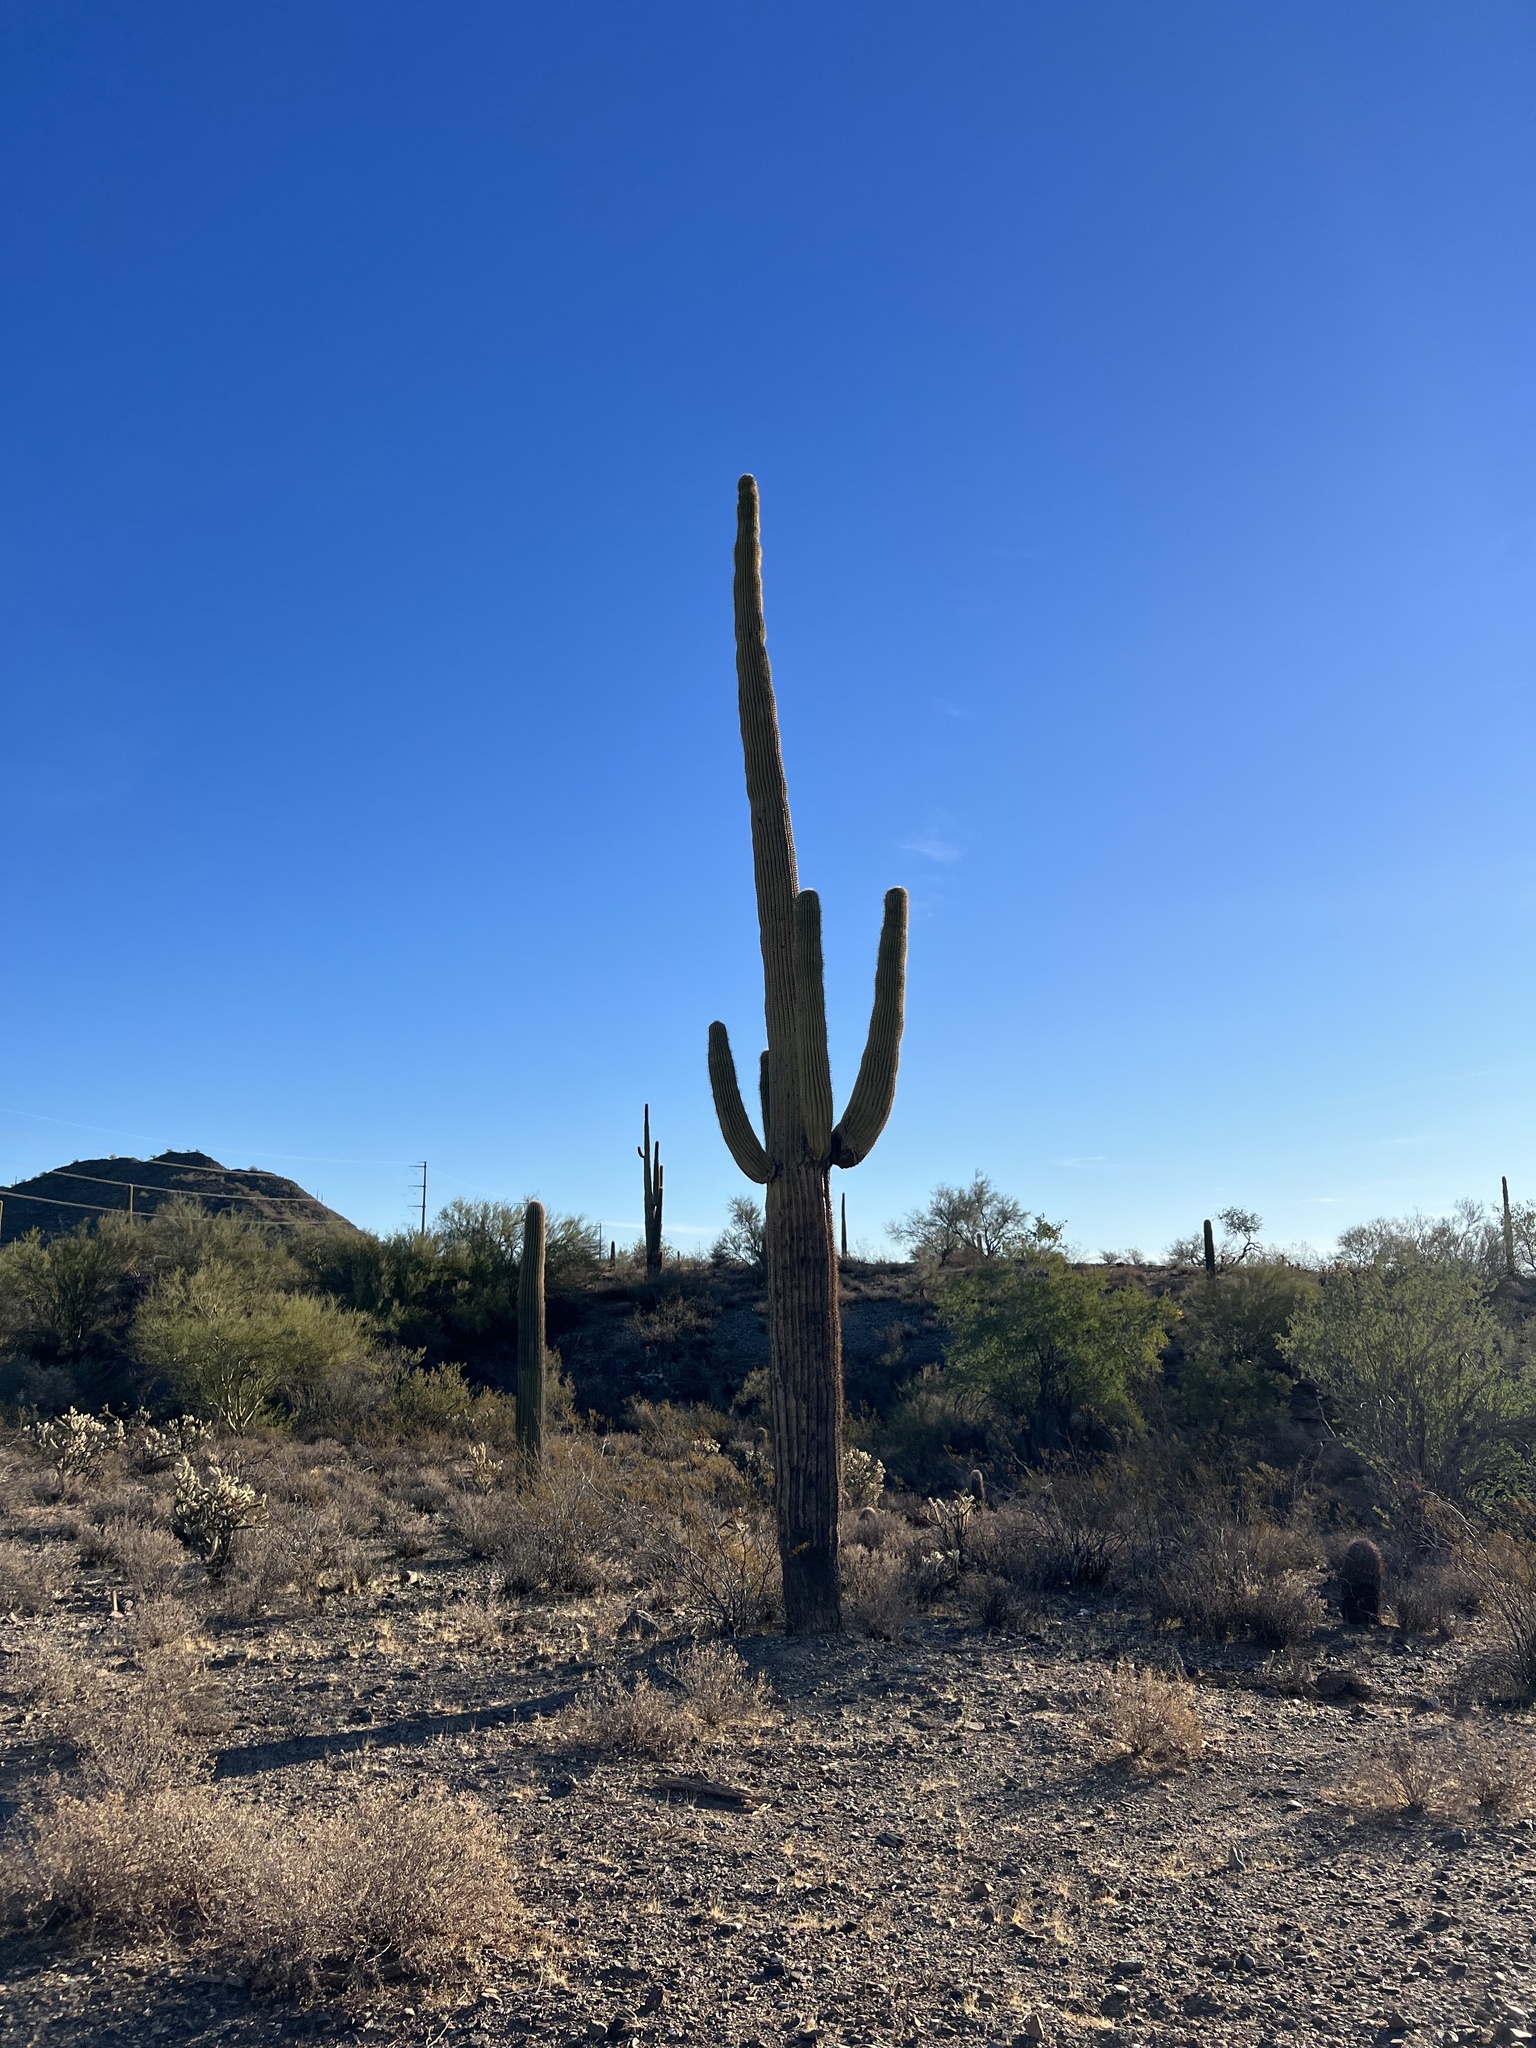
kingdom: Plantae
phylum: Tracheophyta
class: Magnoliopsida
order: Caryophyllales
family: Cactaceae
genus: Carnegiea
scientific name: Carnegiea gigantea
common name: Saguaro
